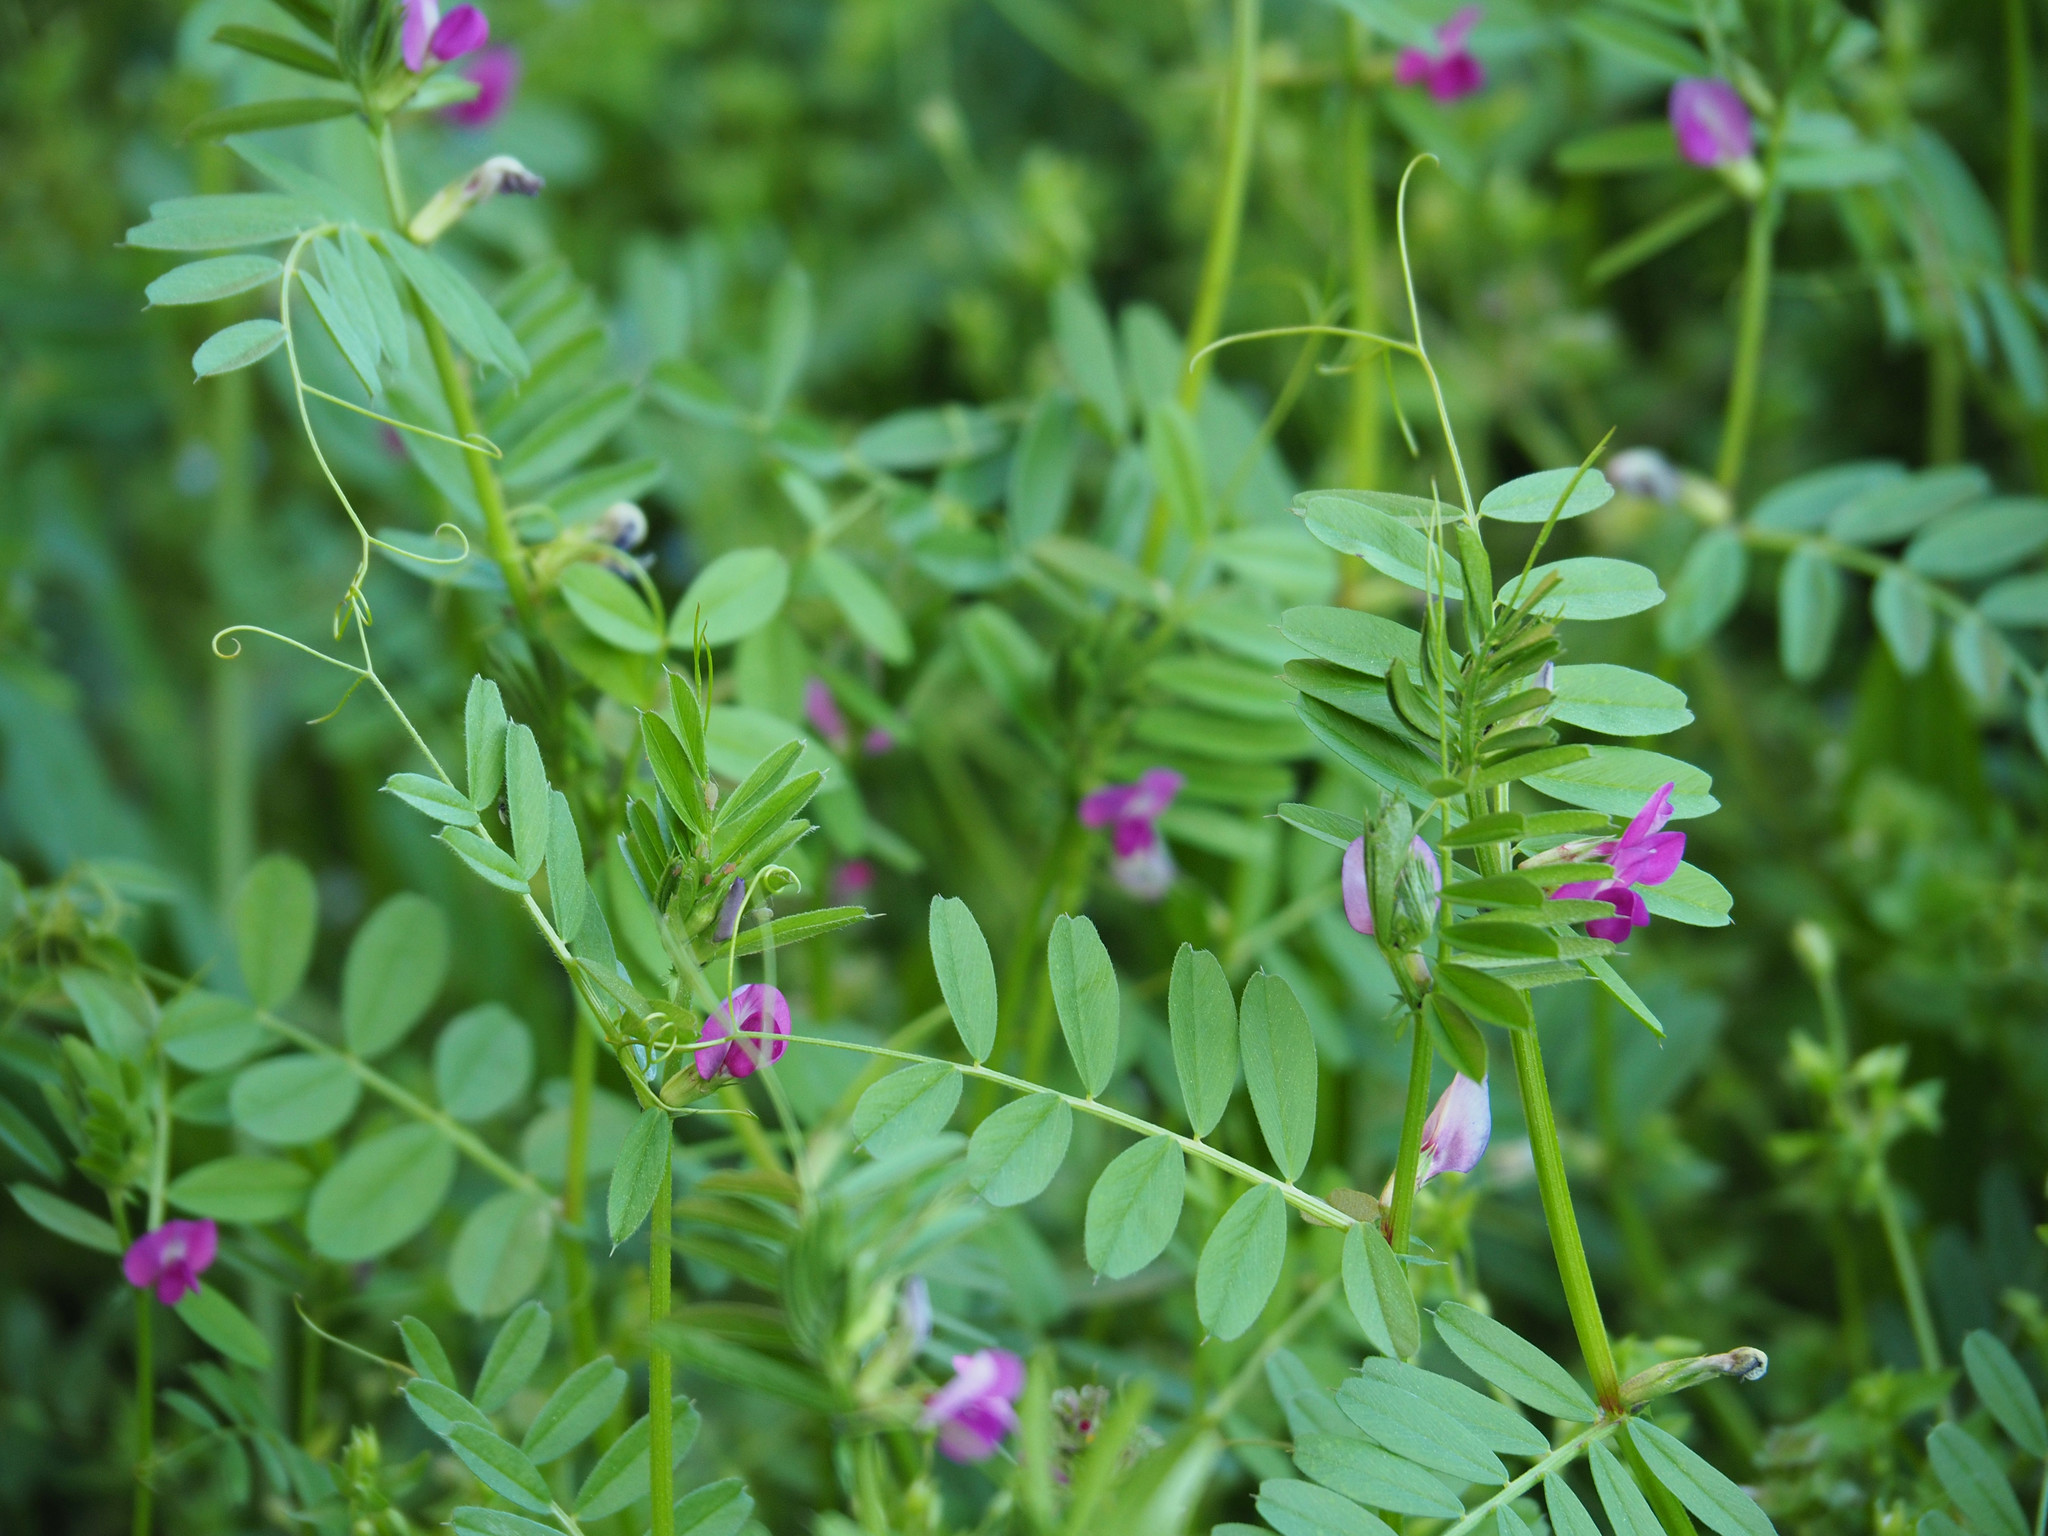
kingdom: Plantae
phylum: Tracheophyta
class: Magnoliopsida
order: Fabales
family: Fabaceae
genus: Vicia
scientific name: Vicia sativa
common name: Garden vetch
